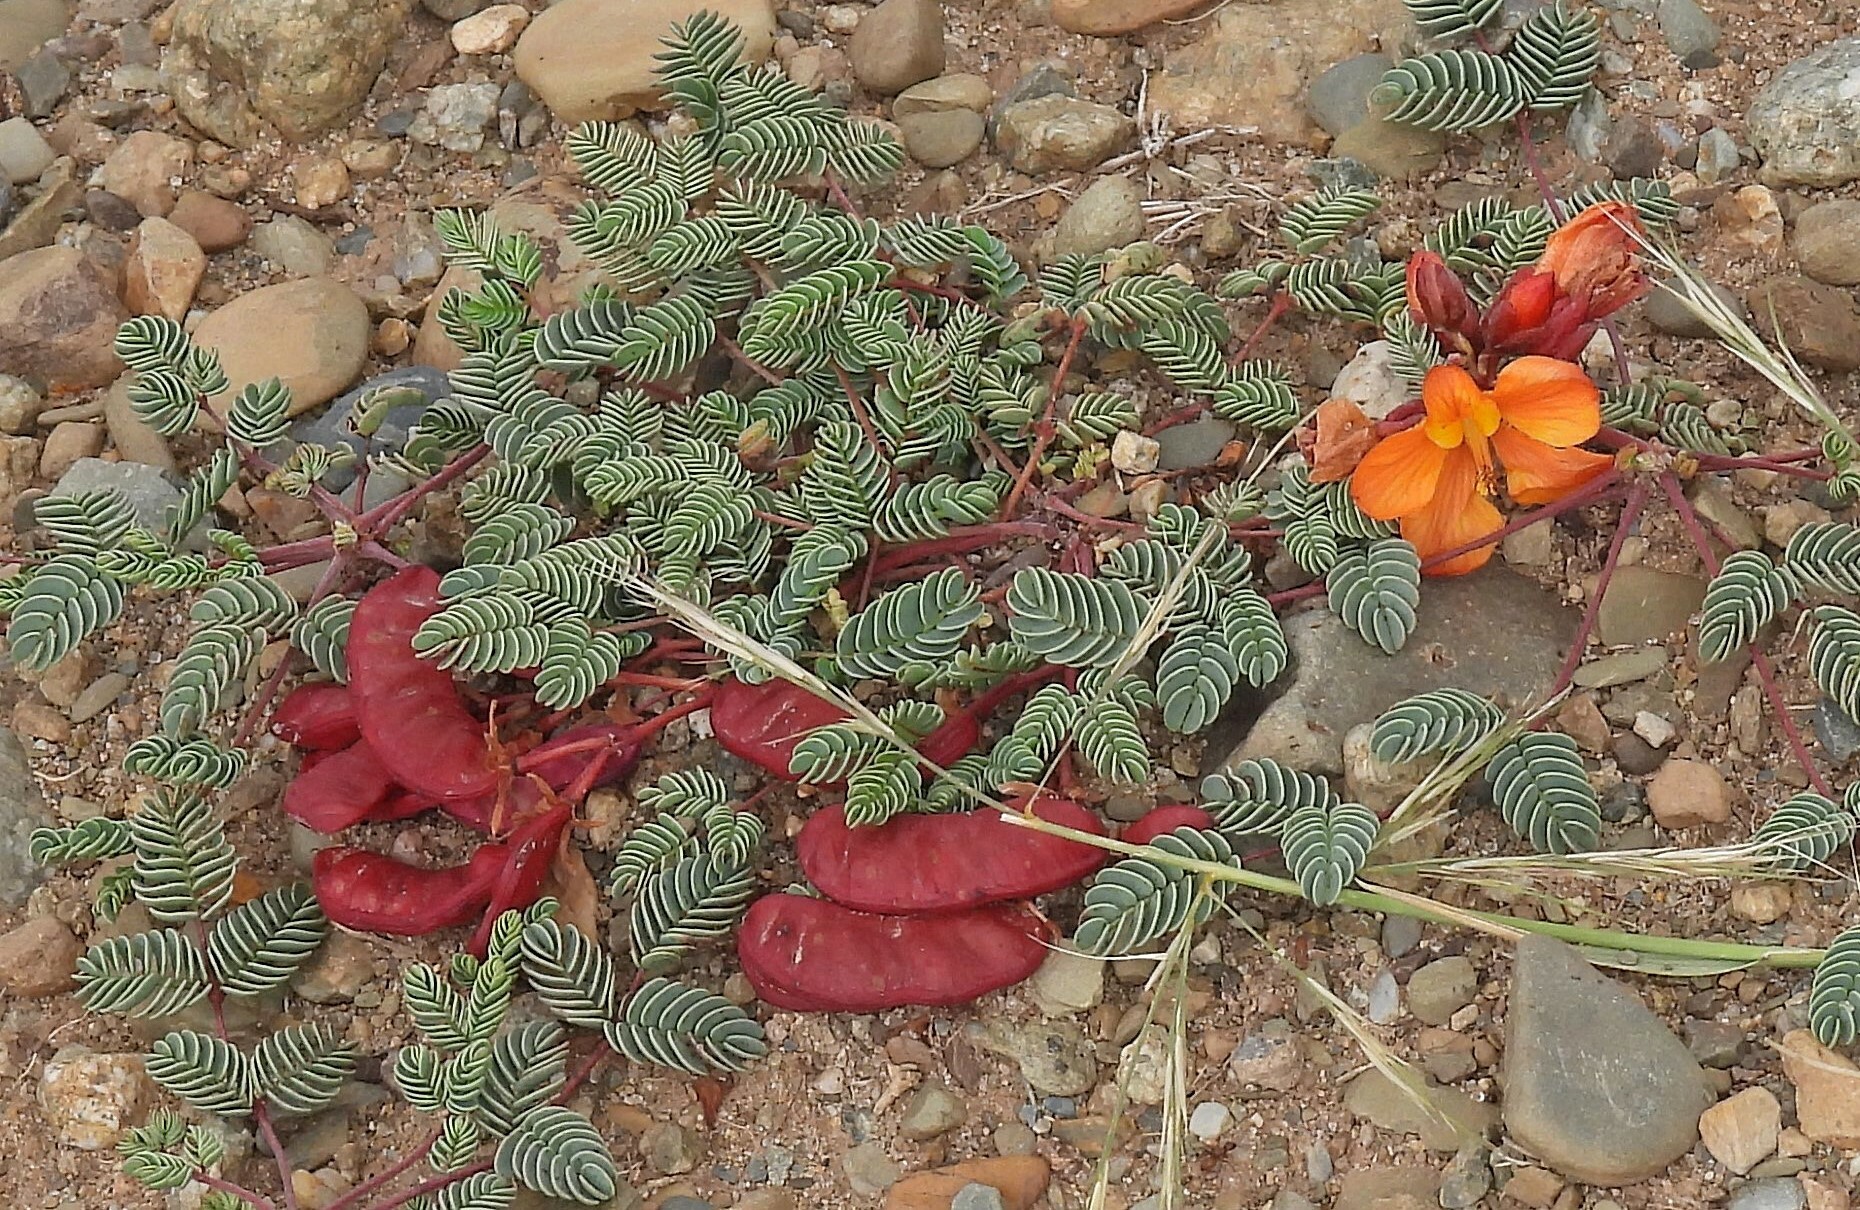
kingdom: Plantae
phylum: Tracheophyta
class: Magnoliopsida
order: Fabales
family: Fabaceae
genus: Hoffmannseggia
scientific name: Hoffmannseggia minor
